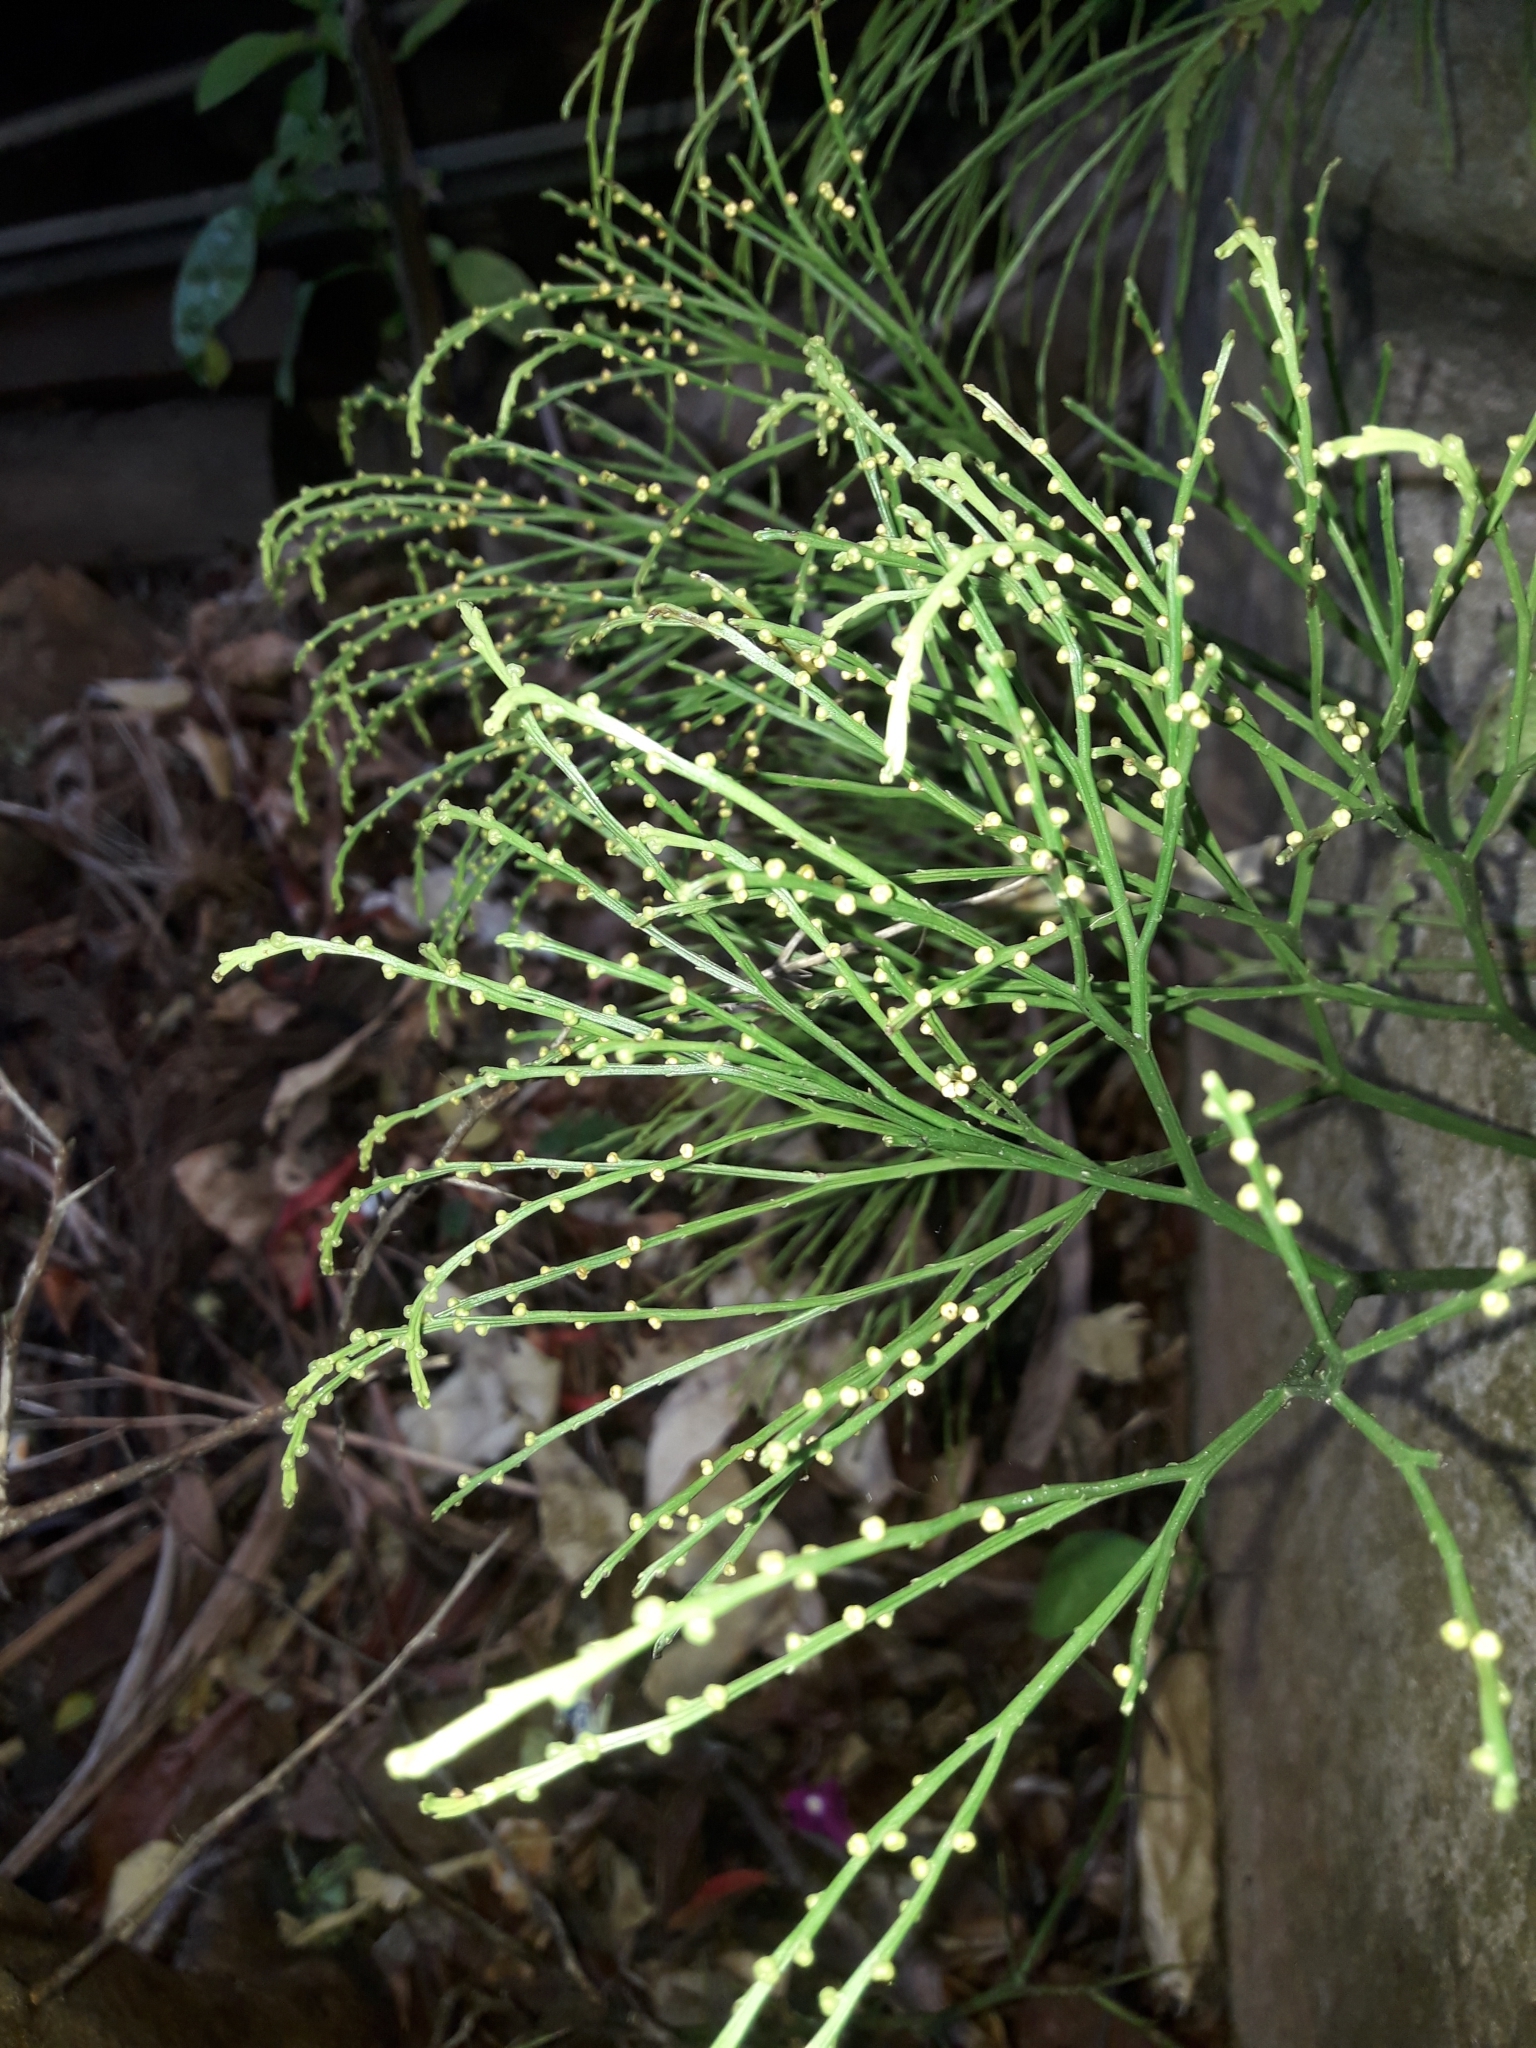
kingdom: Plantae
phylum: Tracheophyta
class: Polypodiopsida
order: Psilotales
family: Psilotaceae
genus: Psilotum
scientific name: Psilotum nudum
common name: Skeleton fork fern
